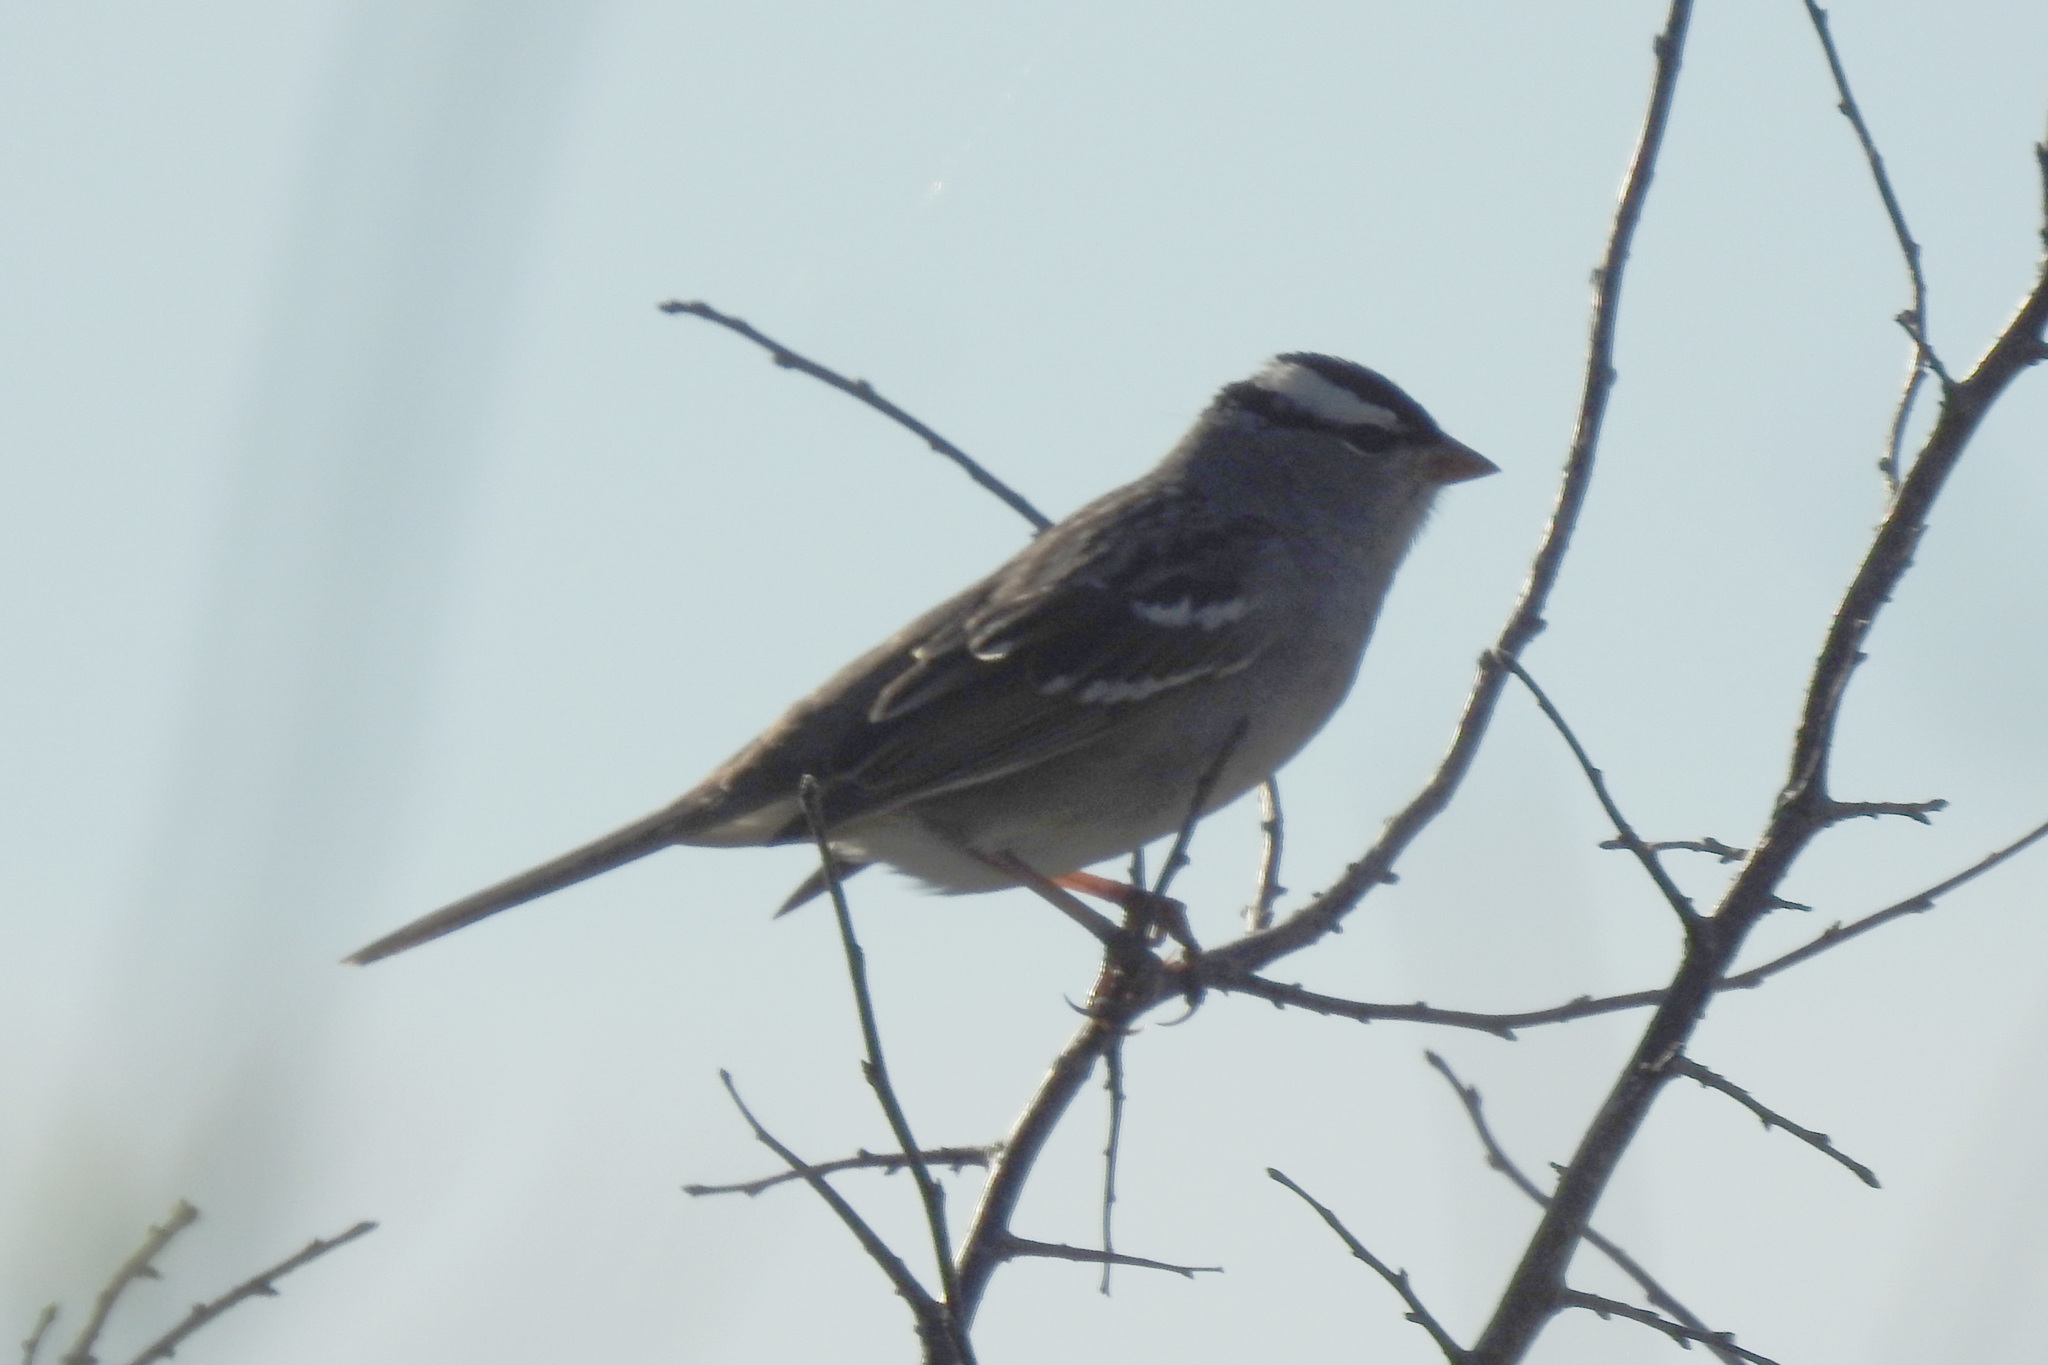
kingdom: Animalia
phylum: Chordata
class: Aves
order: Passeriformes
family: Passerellidae
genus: Zonotrichia
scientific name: Zonotrichia leucophrys
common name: White-crowned sparrow
